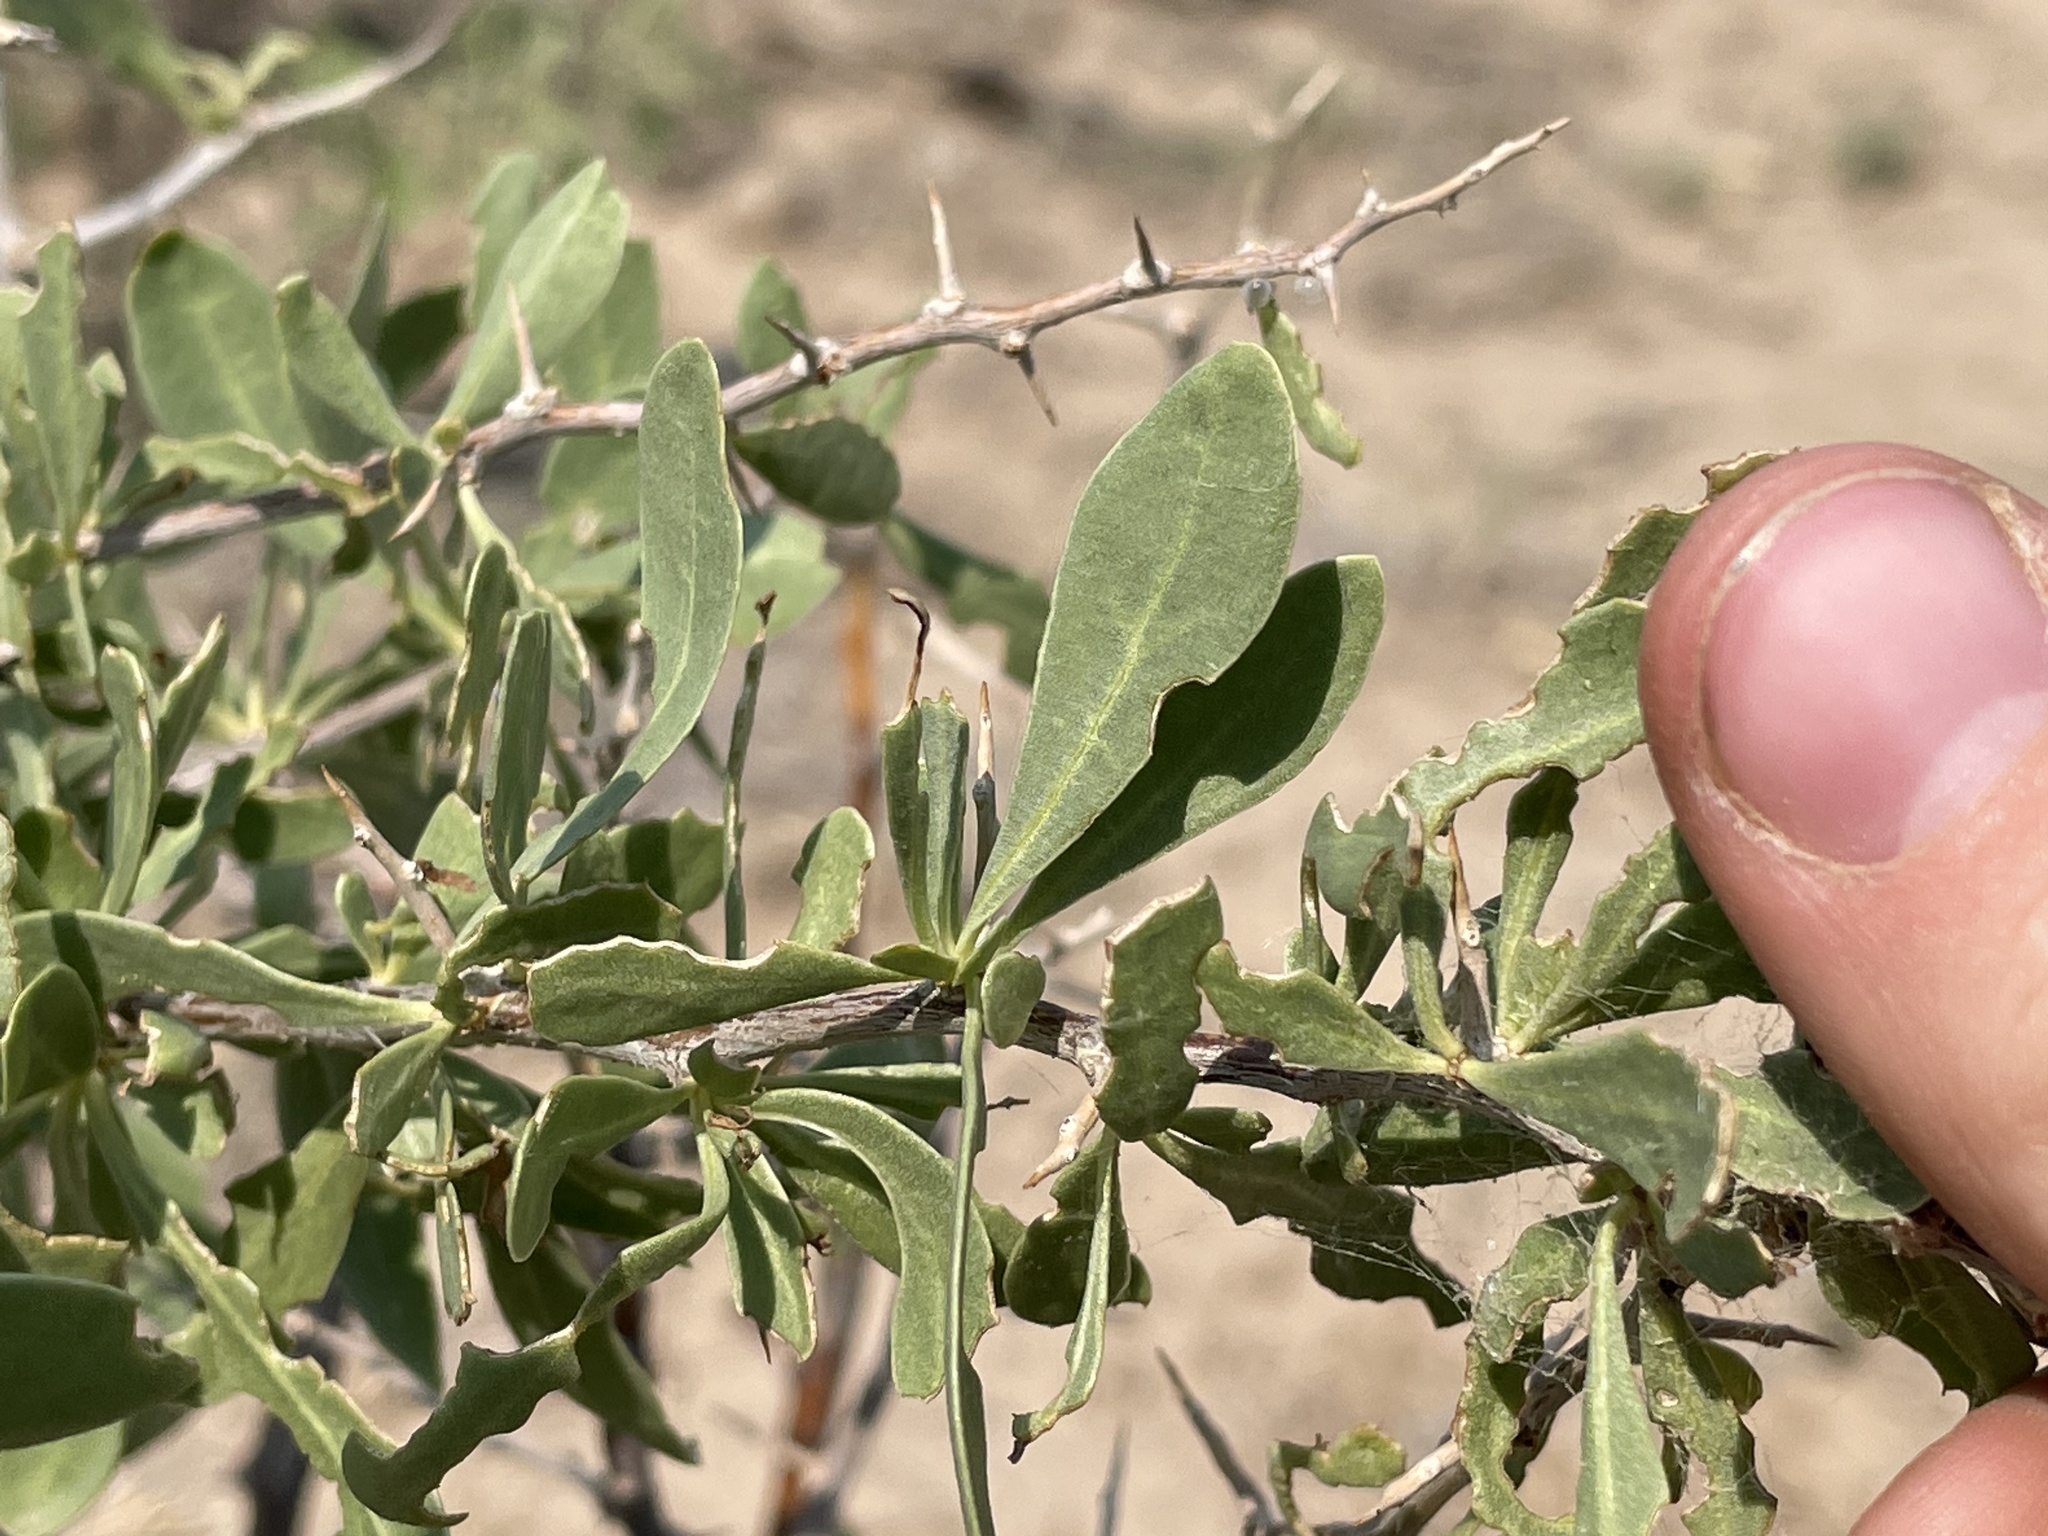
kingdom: Plantae
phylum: Tracheophyta
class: Magnoliopsida
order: Solanales
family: Solanaceae
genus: Lycium
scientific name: Lycium pallidum
